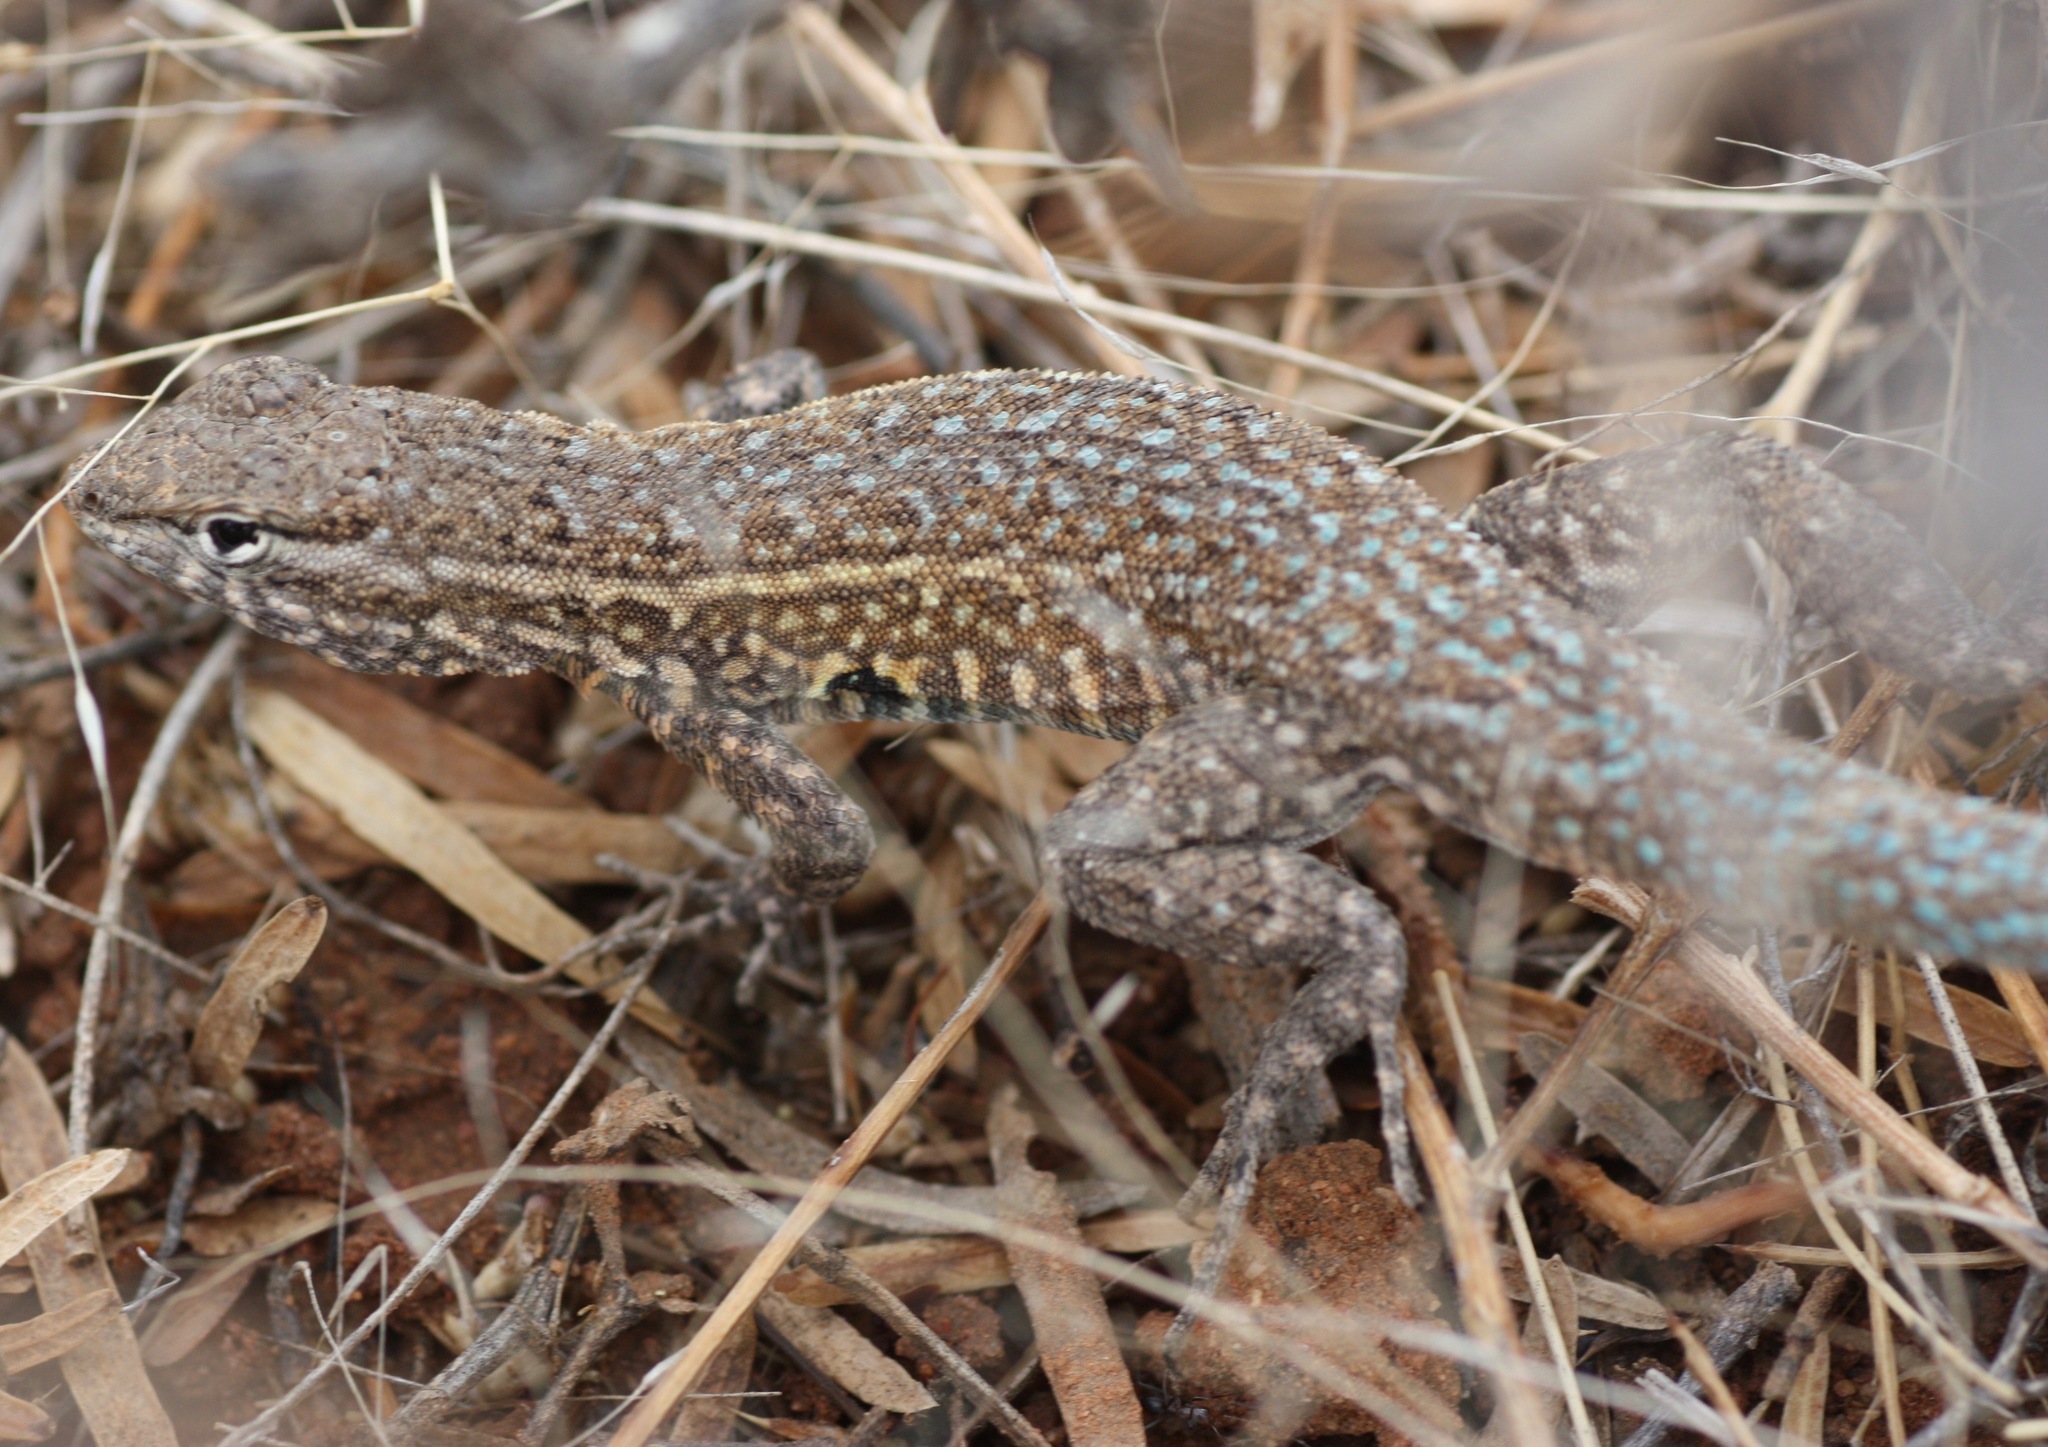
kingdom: Animalia
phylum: Chordata
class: Squamata
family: Phrynosomatidae
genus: Uta
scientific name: Uta stansburiana
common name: Side-blotched lizard
